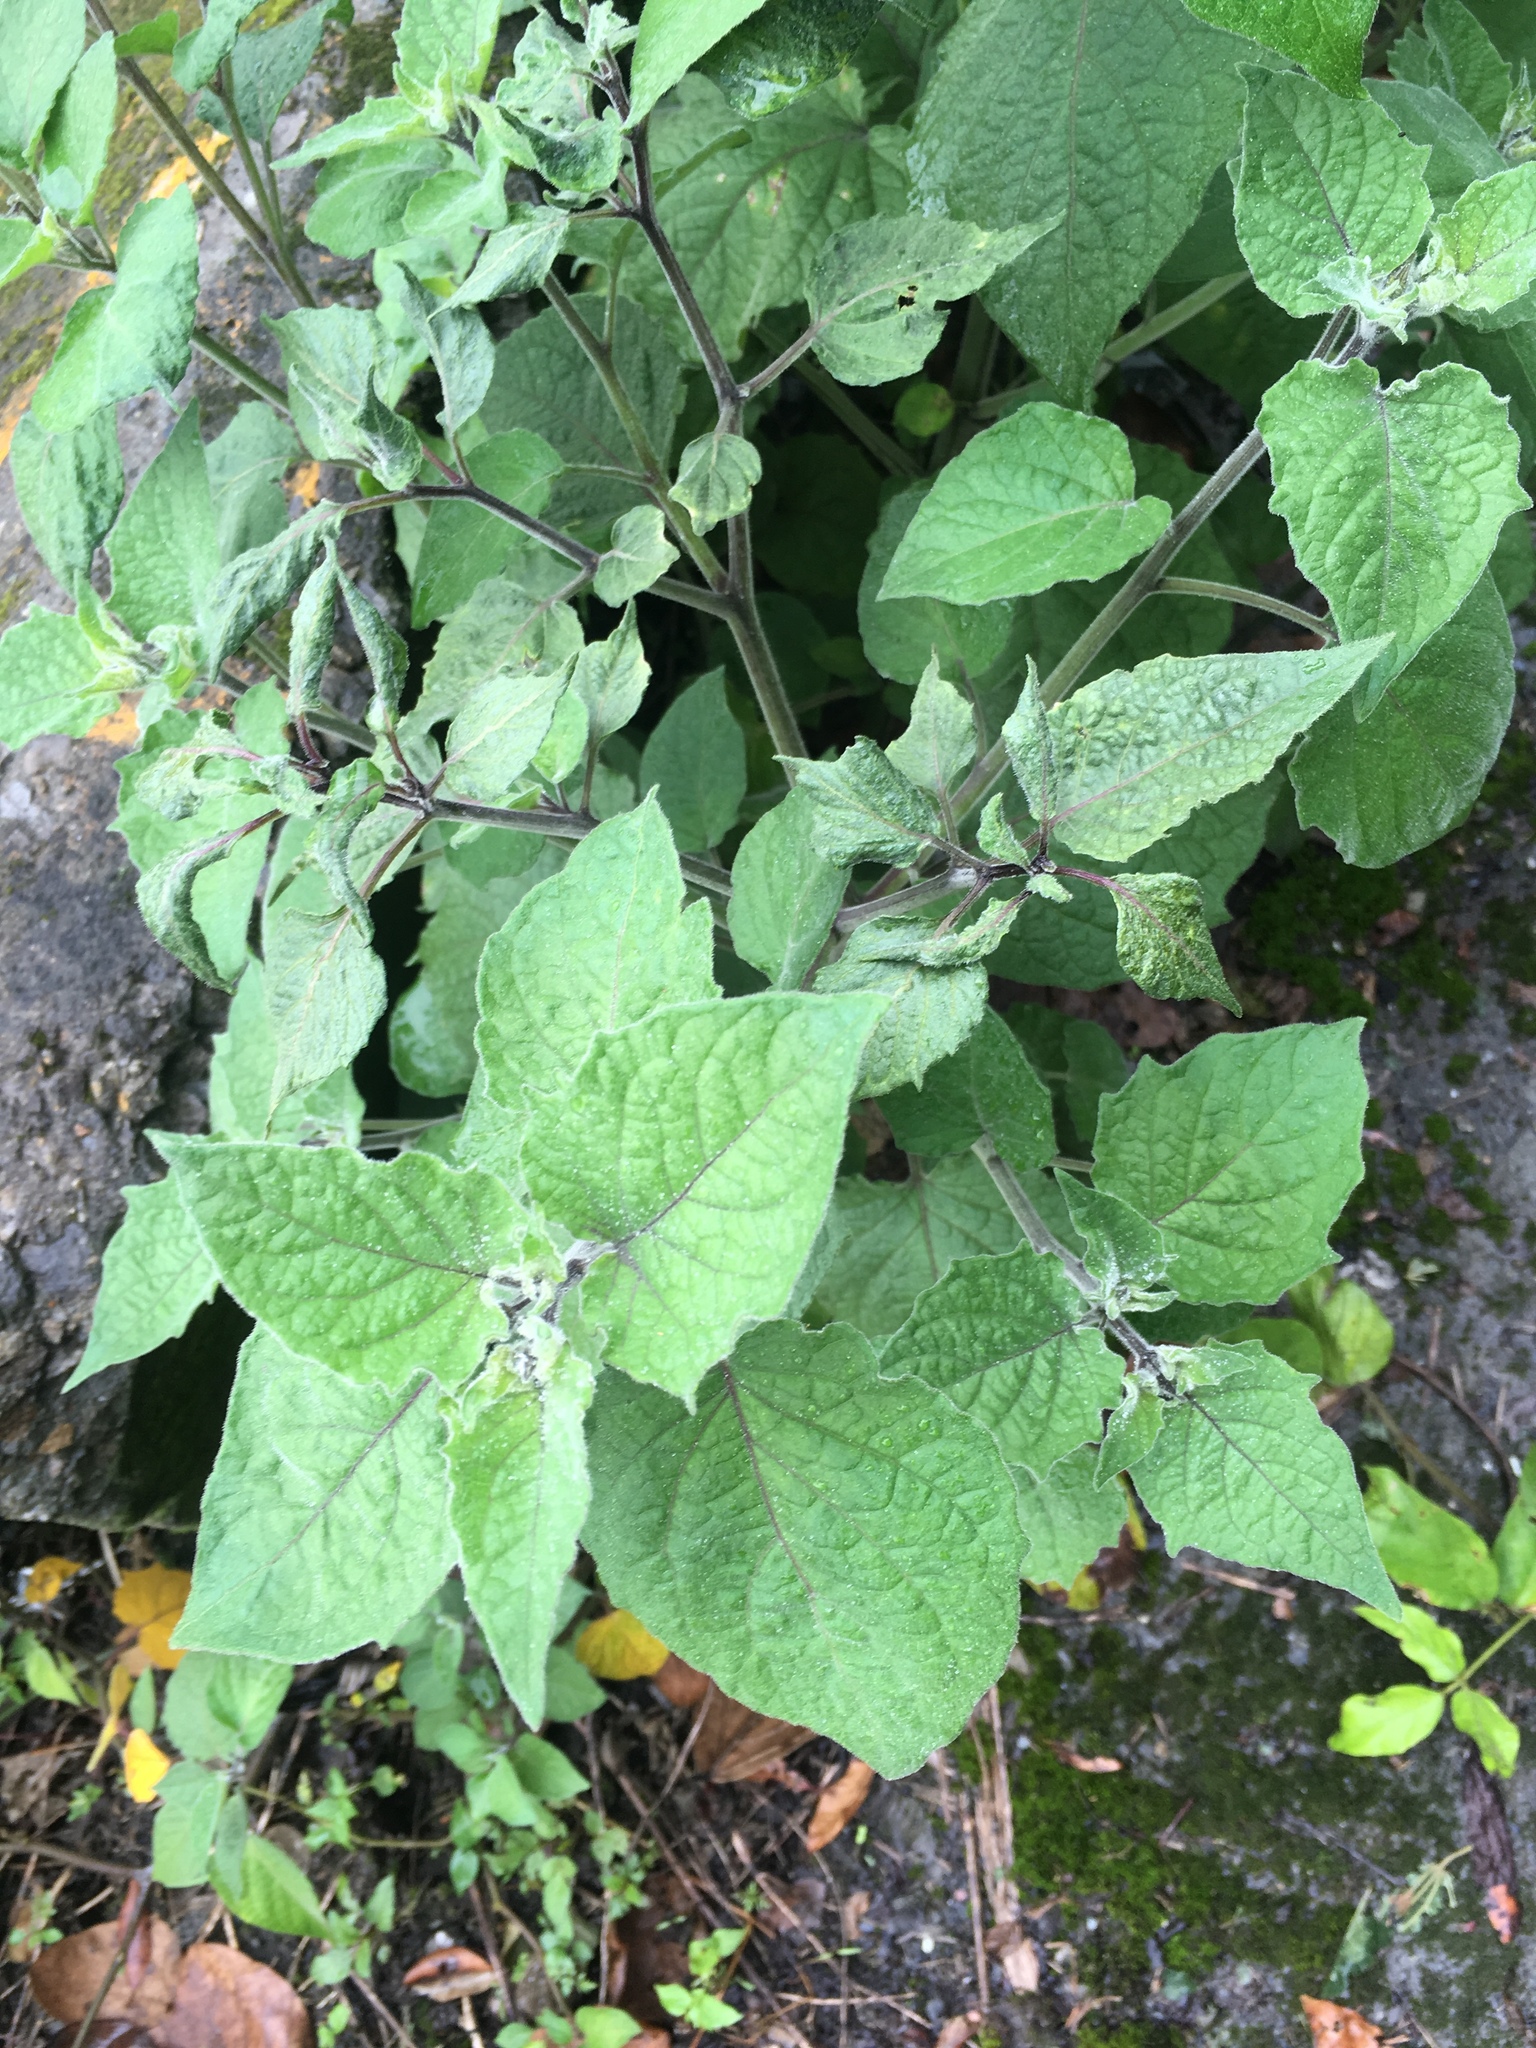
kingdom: Plantae
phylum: Tracheophyta
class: Magnoliopsida
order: Solanales
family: Solanaceae
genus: Physalis
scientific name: Physalis peruviana
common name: Cape-gooseberry
